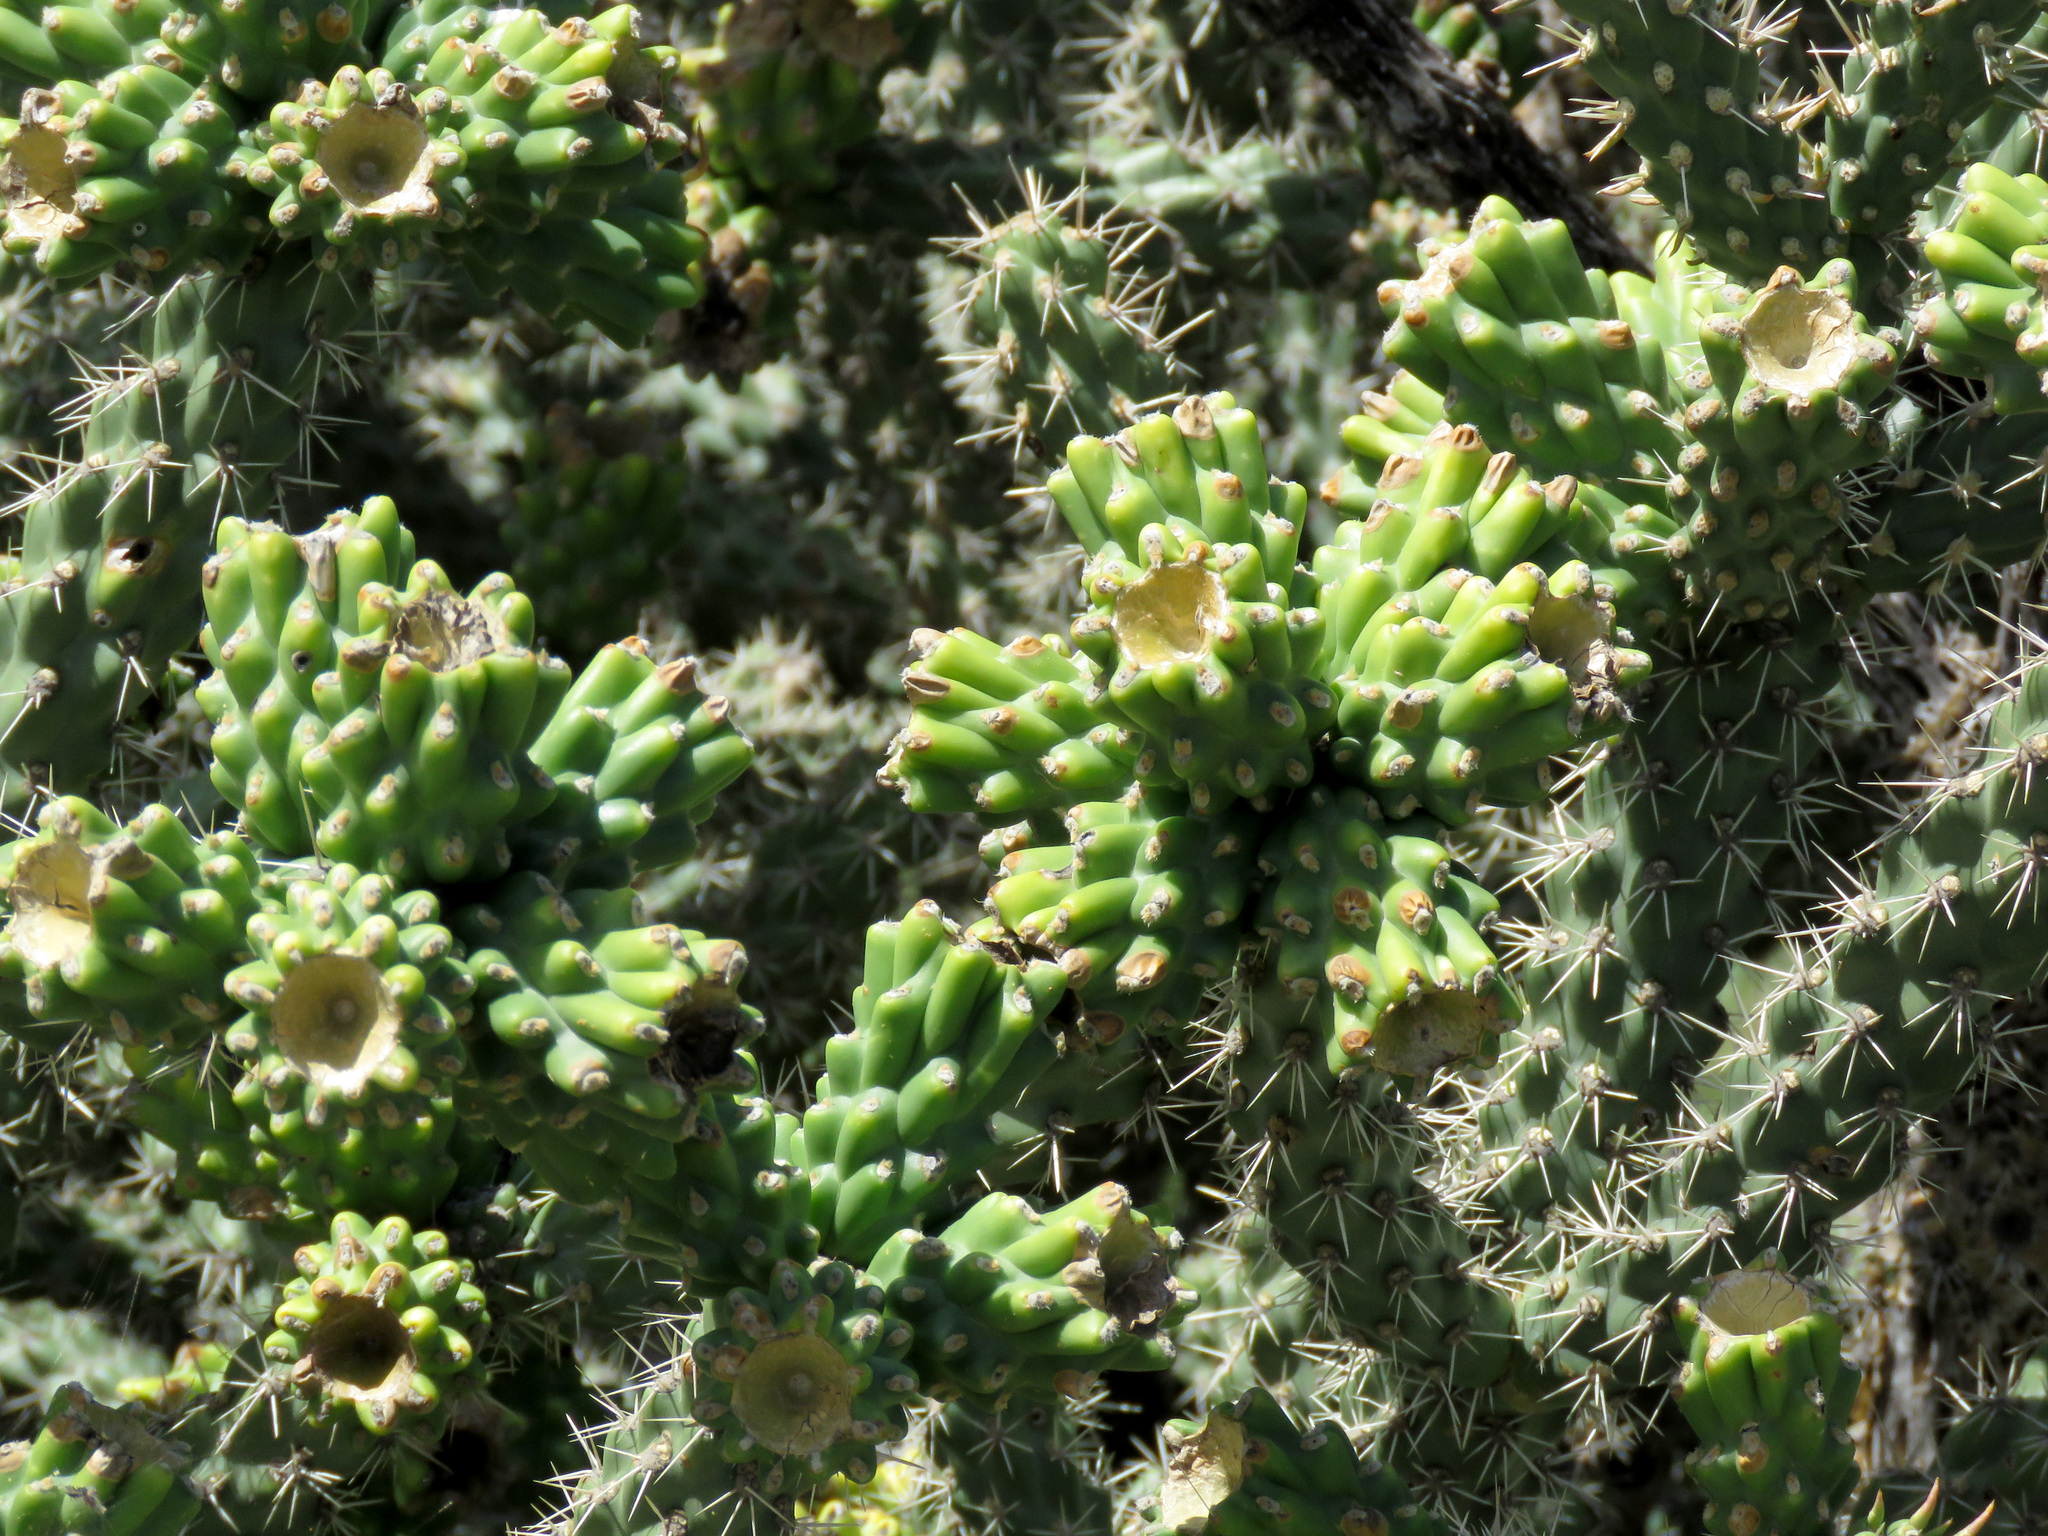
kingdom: Plantae
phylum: Tracheophyta
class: Magnoliopsida
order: Caryophyllales
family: Cactaceae
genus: Cylindropuntia
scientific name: Cylindropuntia imbricata
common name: Candelabrum cactus
